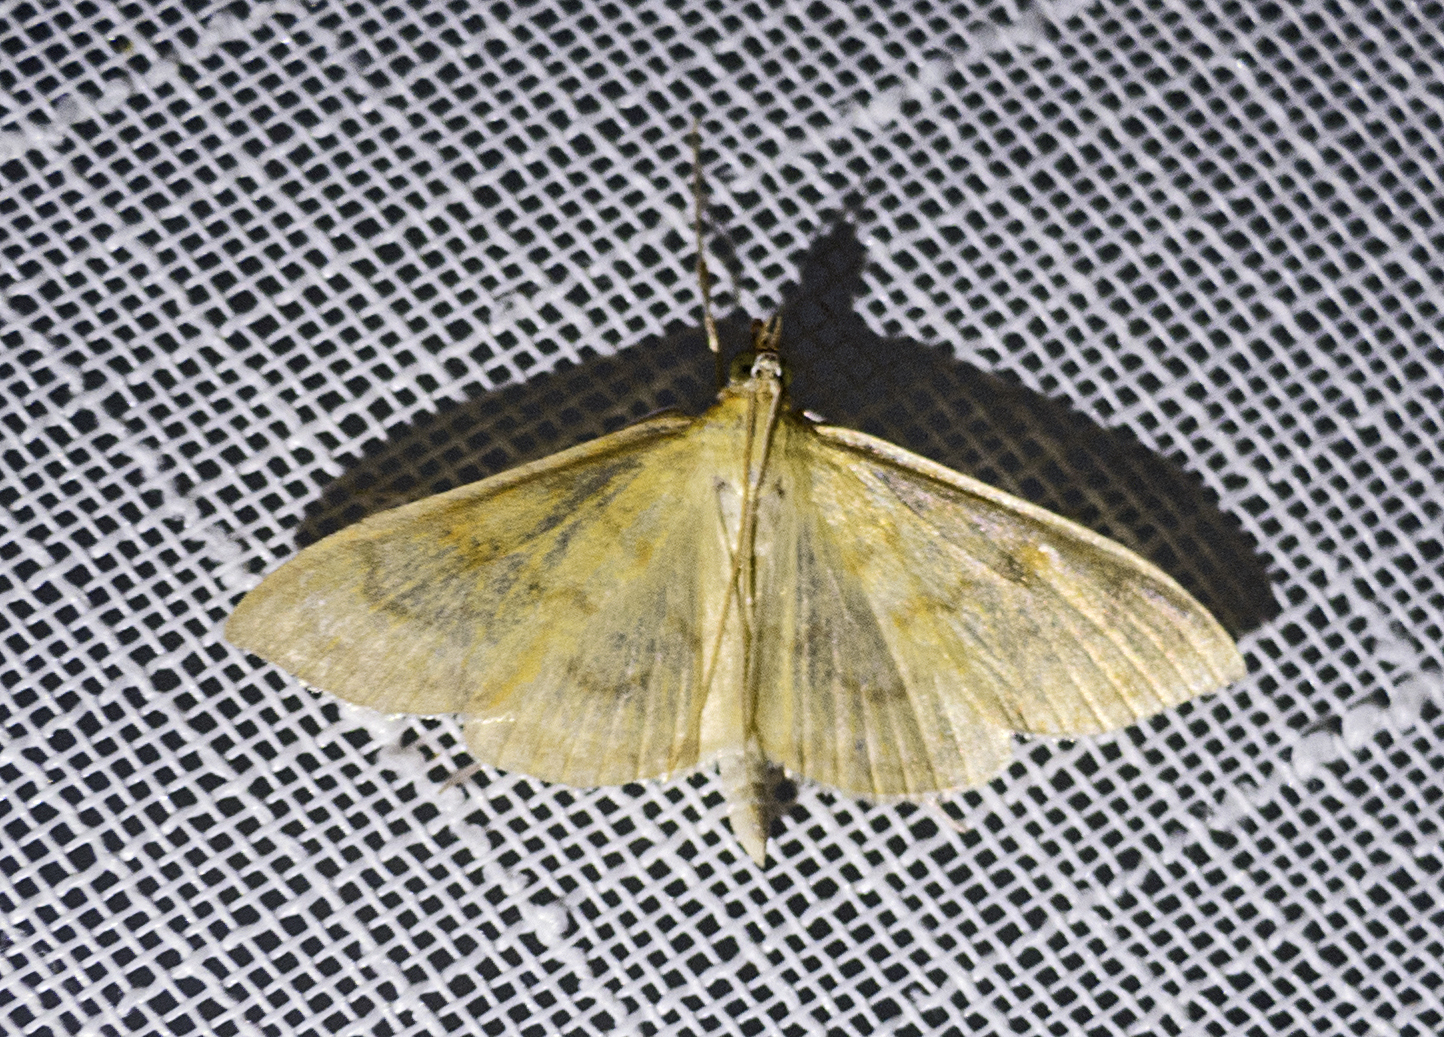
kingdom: Animalia
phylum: Arthropoda
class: Insecta
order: Lepidoptera
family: Crambidae
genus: Patania
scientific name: Patania ruralis
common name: Mother of pearl
